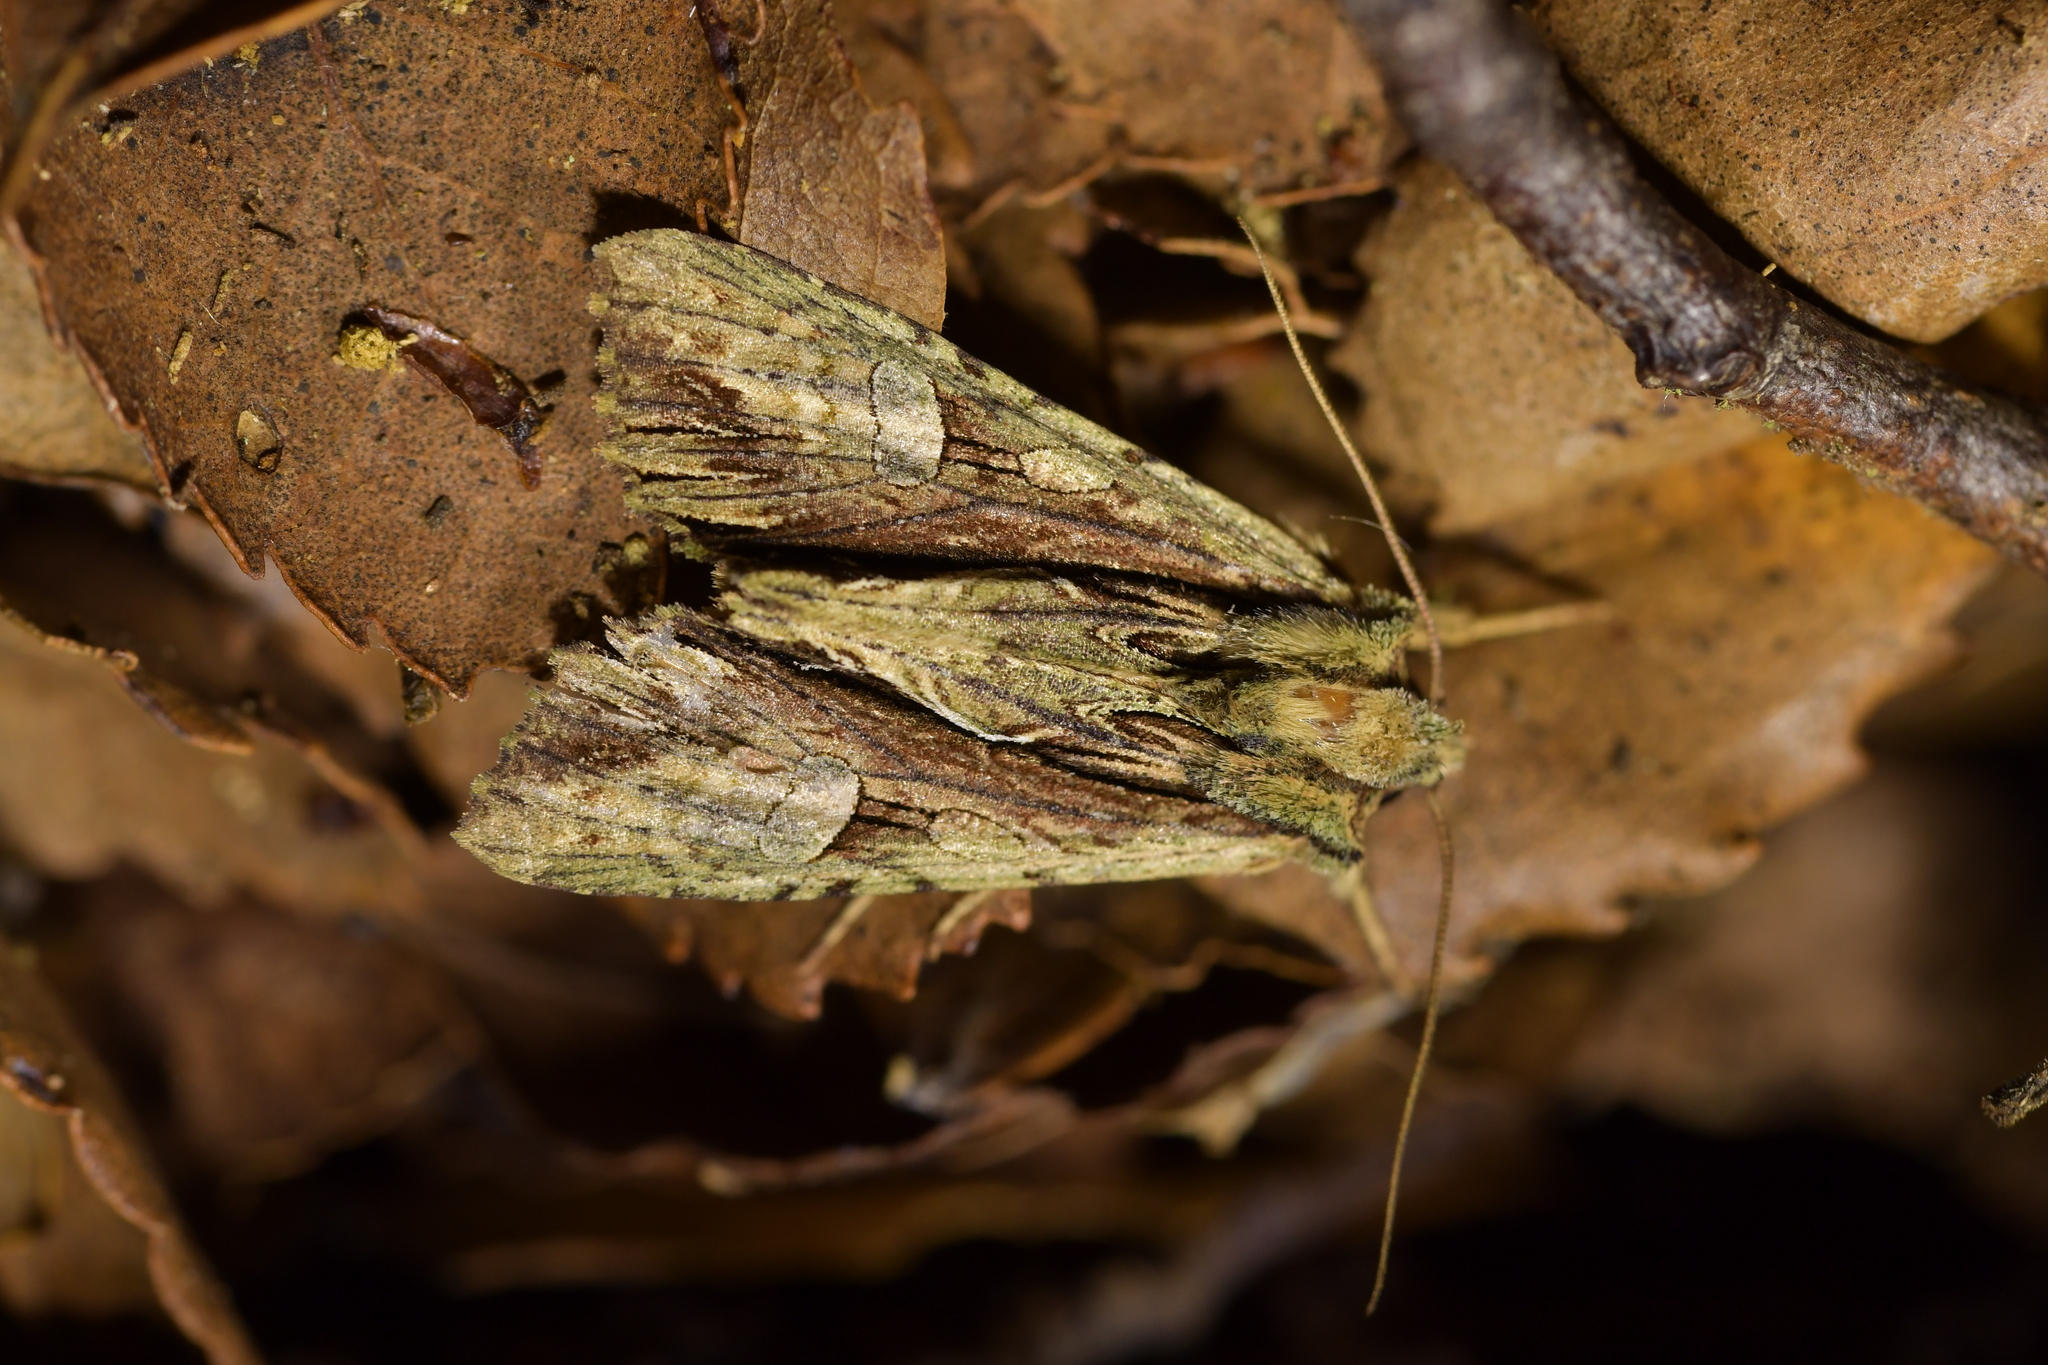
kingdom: Animalia
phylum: Arthropoda
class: Insecta
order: Lepidoptera
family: Noctuidae
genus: Meterana
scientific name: Meterana decorata
